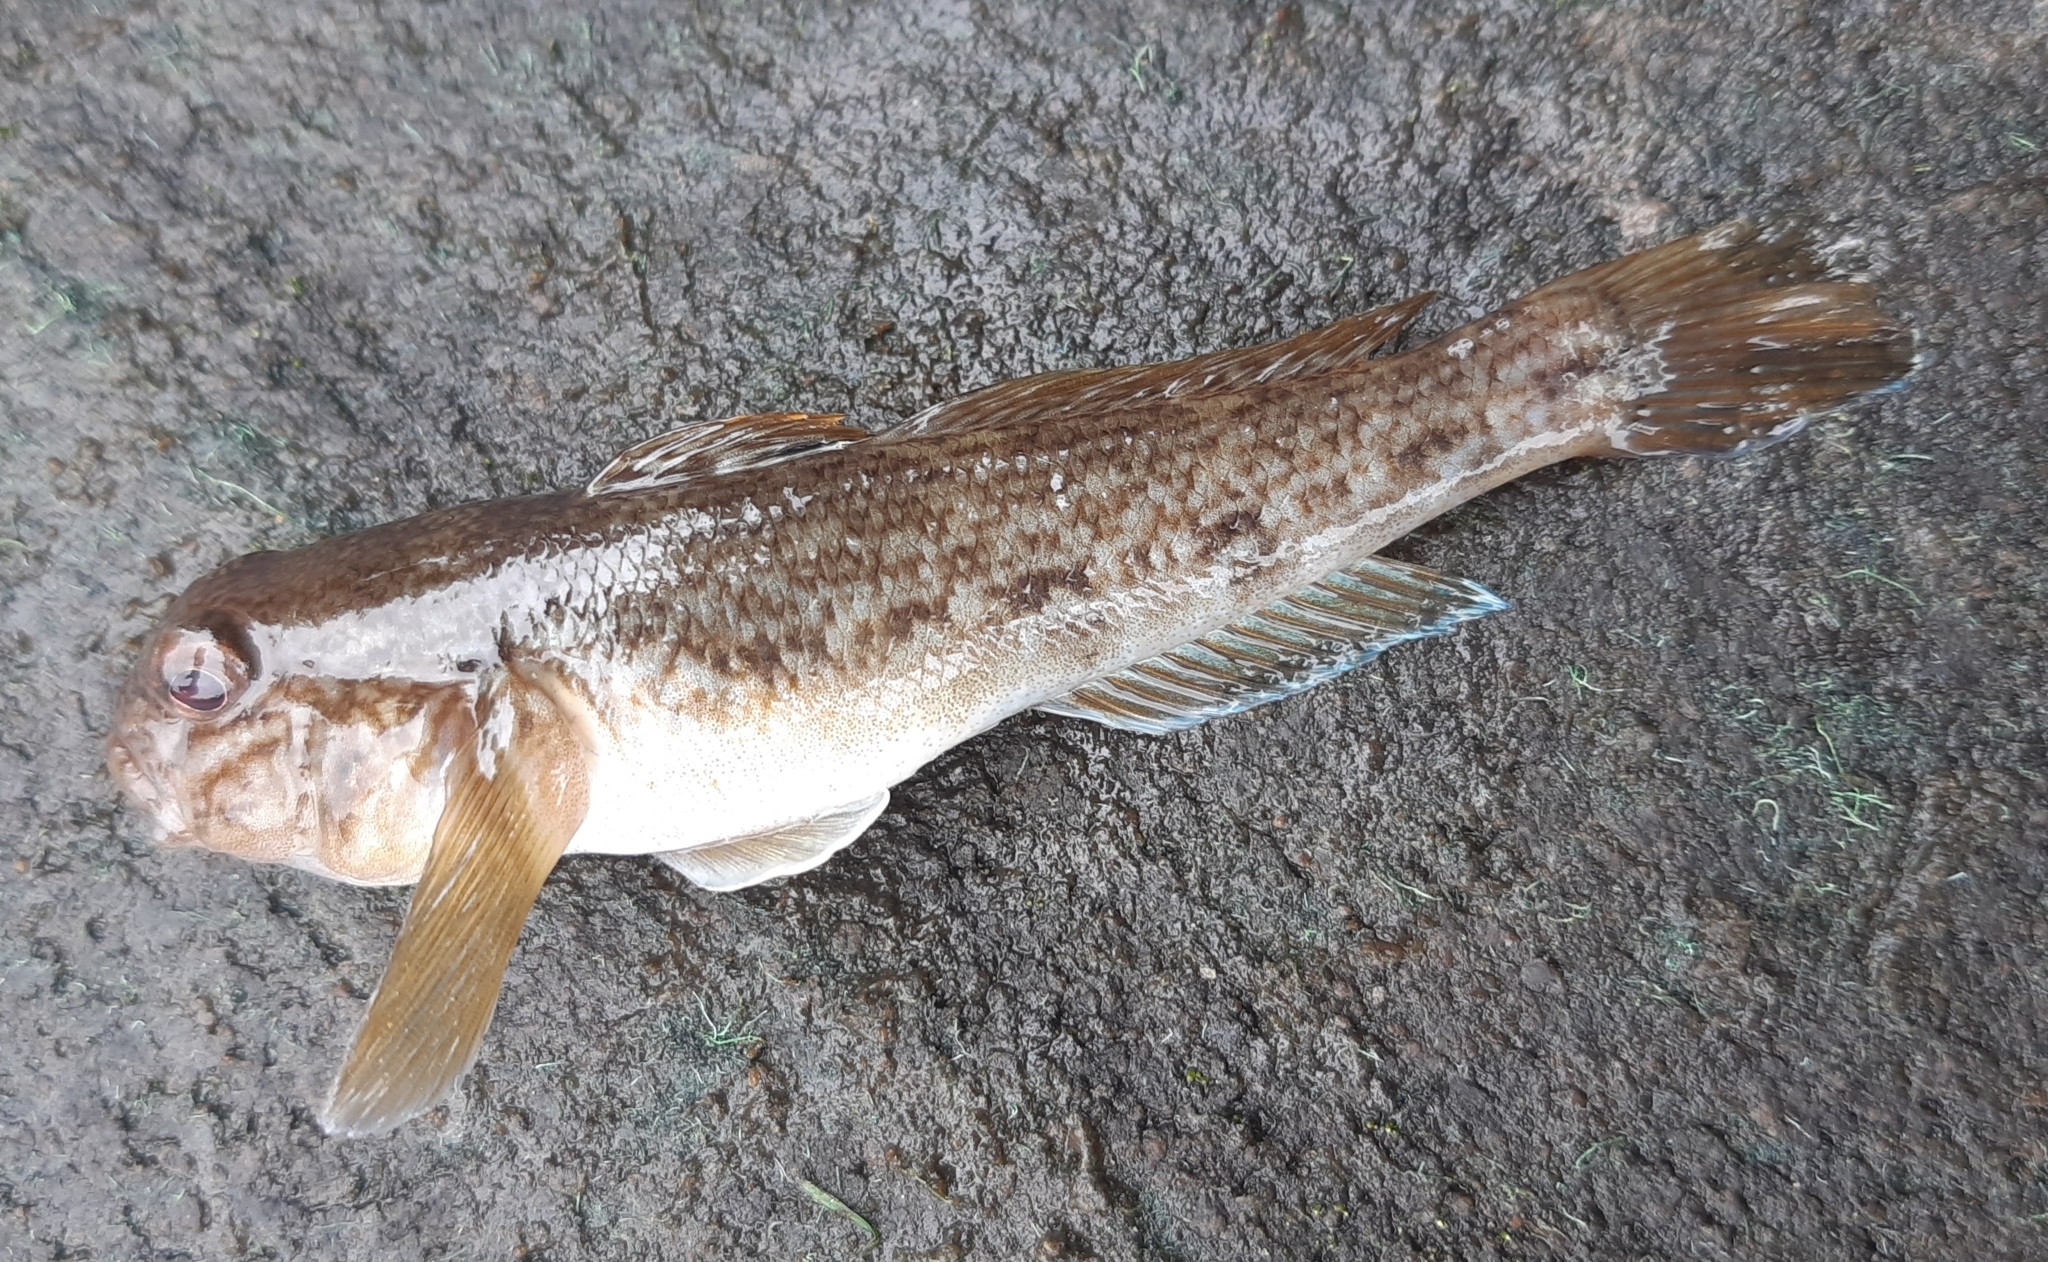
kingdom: Animalia
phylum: Chordata
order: Perciformes
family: Gobiidae
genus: Neogobius
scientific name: Neogobius melanostomus
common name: Round goby
